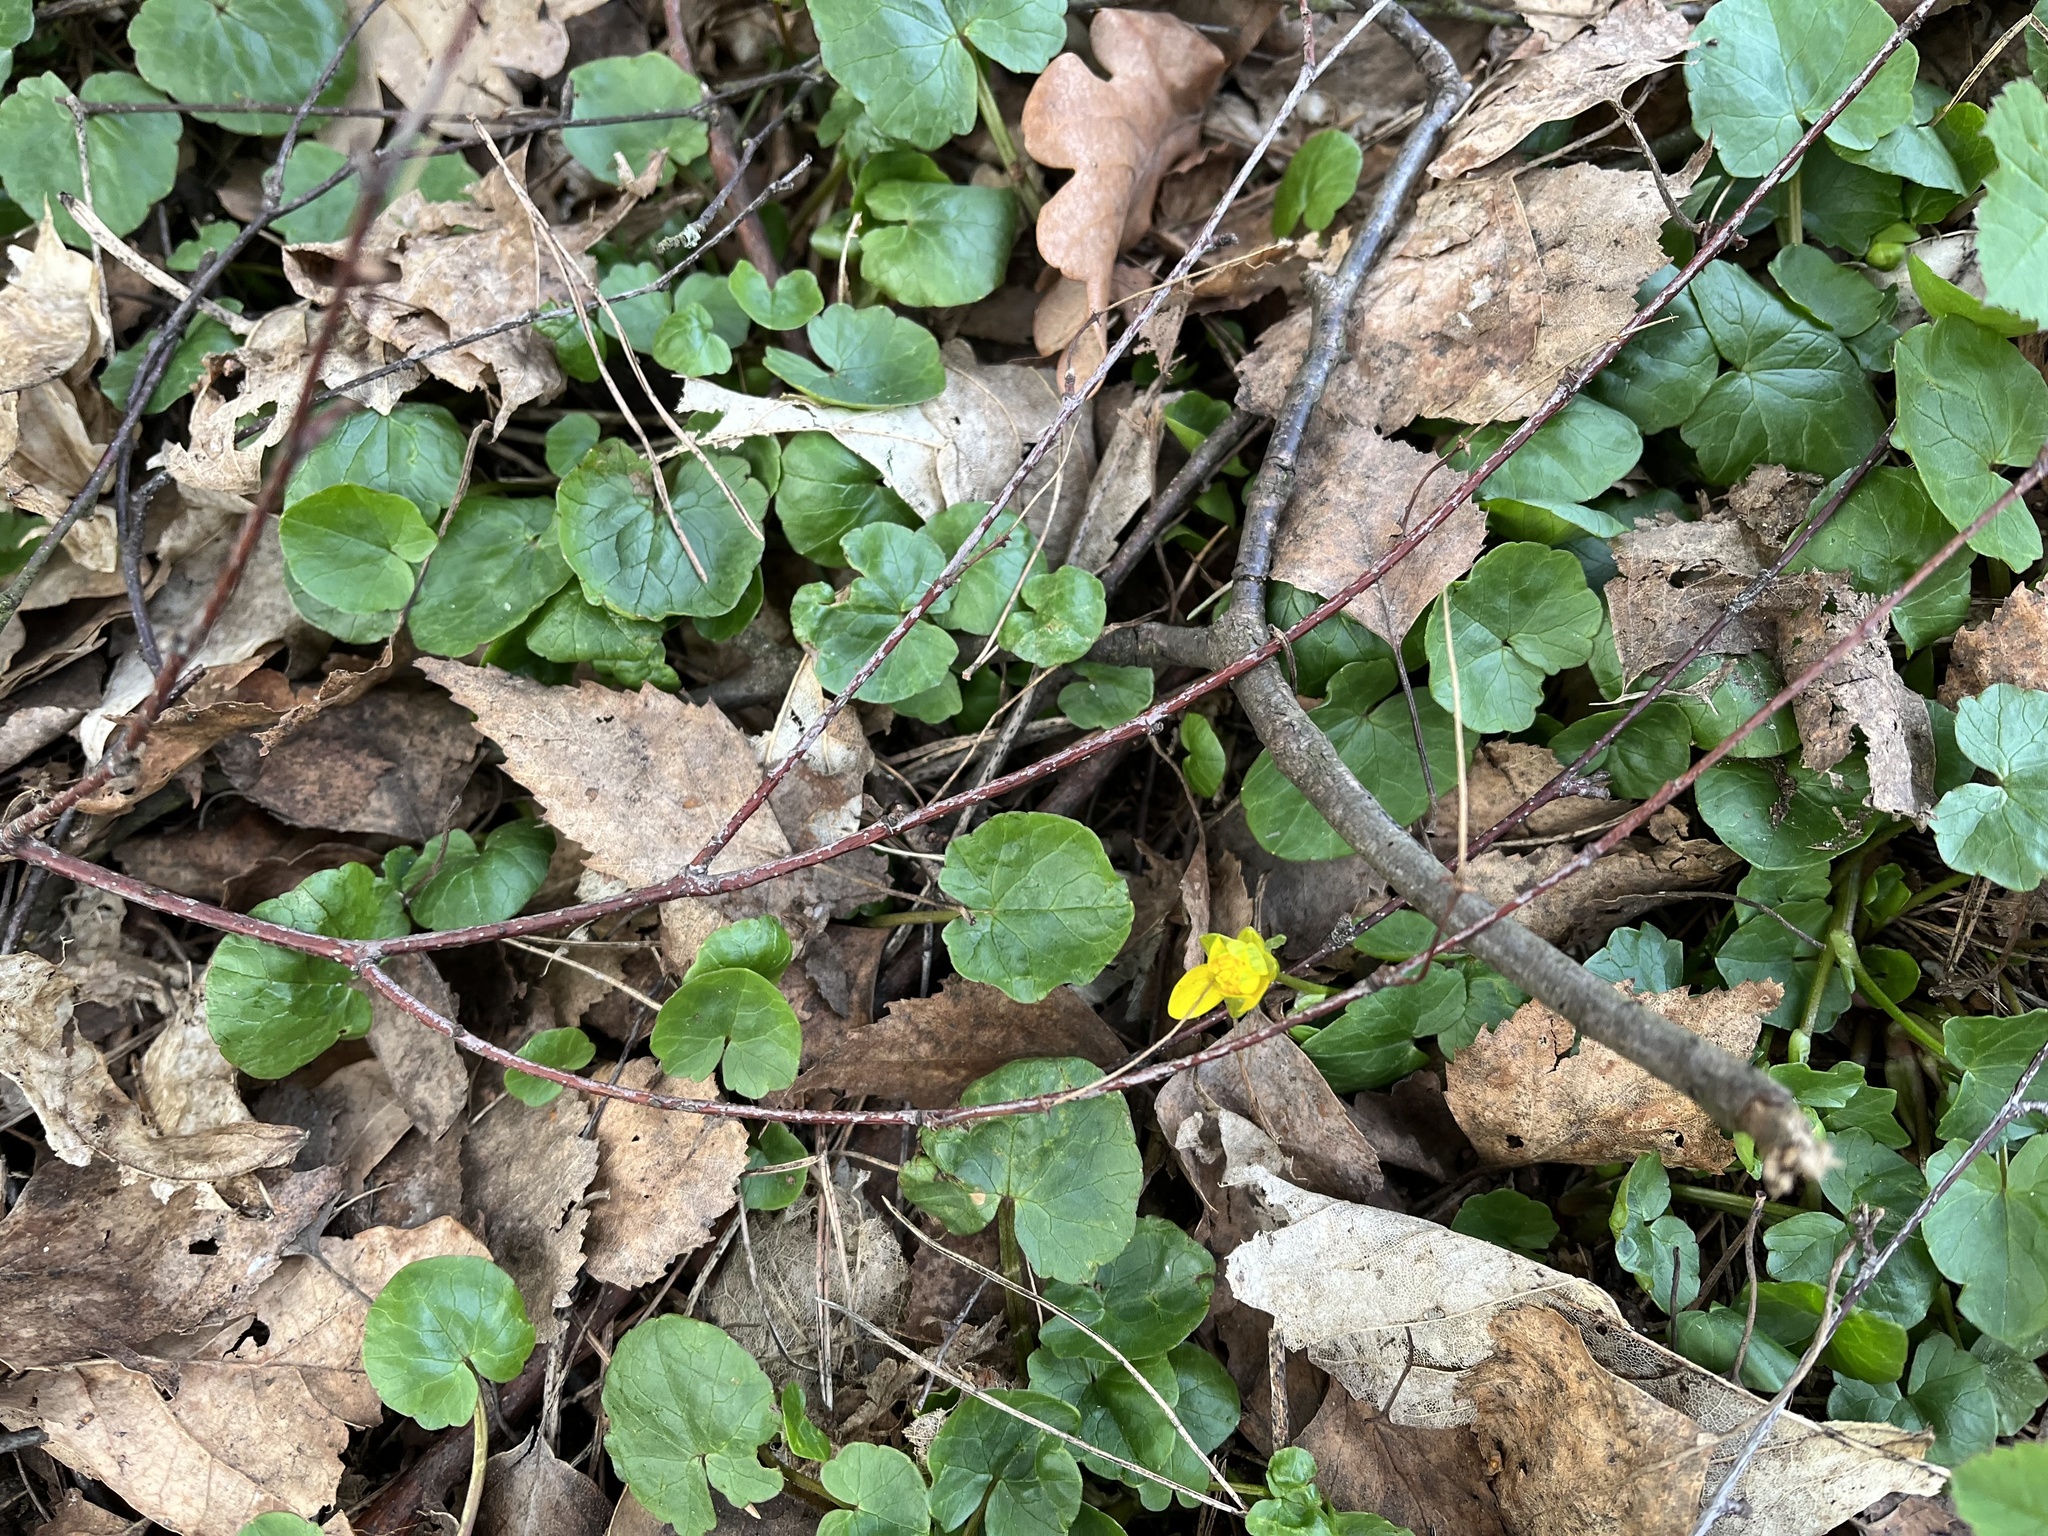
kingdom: Plantae
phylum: Tracheophyta
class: Magnoliopsida
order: Ranunculales
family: Ranunculaceae
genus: Ficaria
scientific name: Ficaria verna
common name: Lesser celandine
